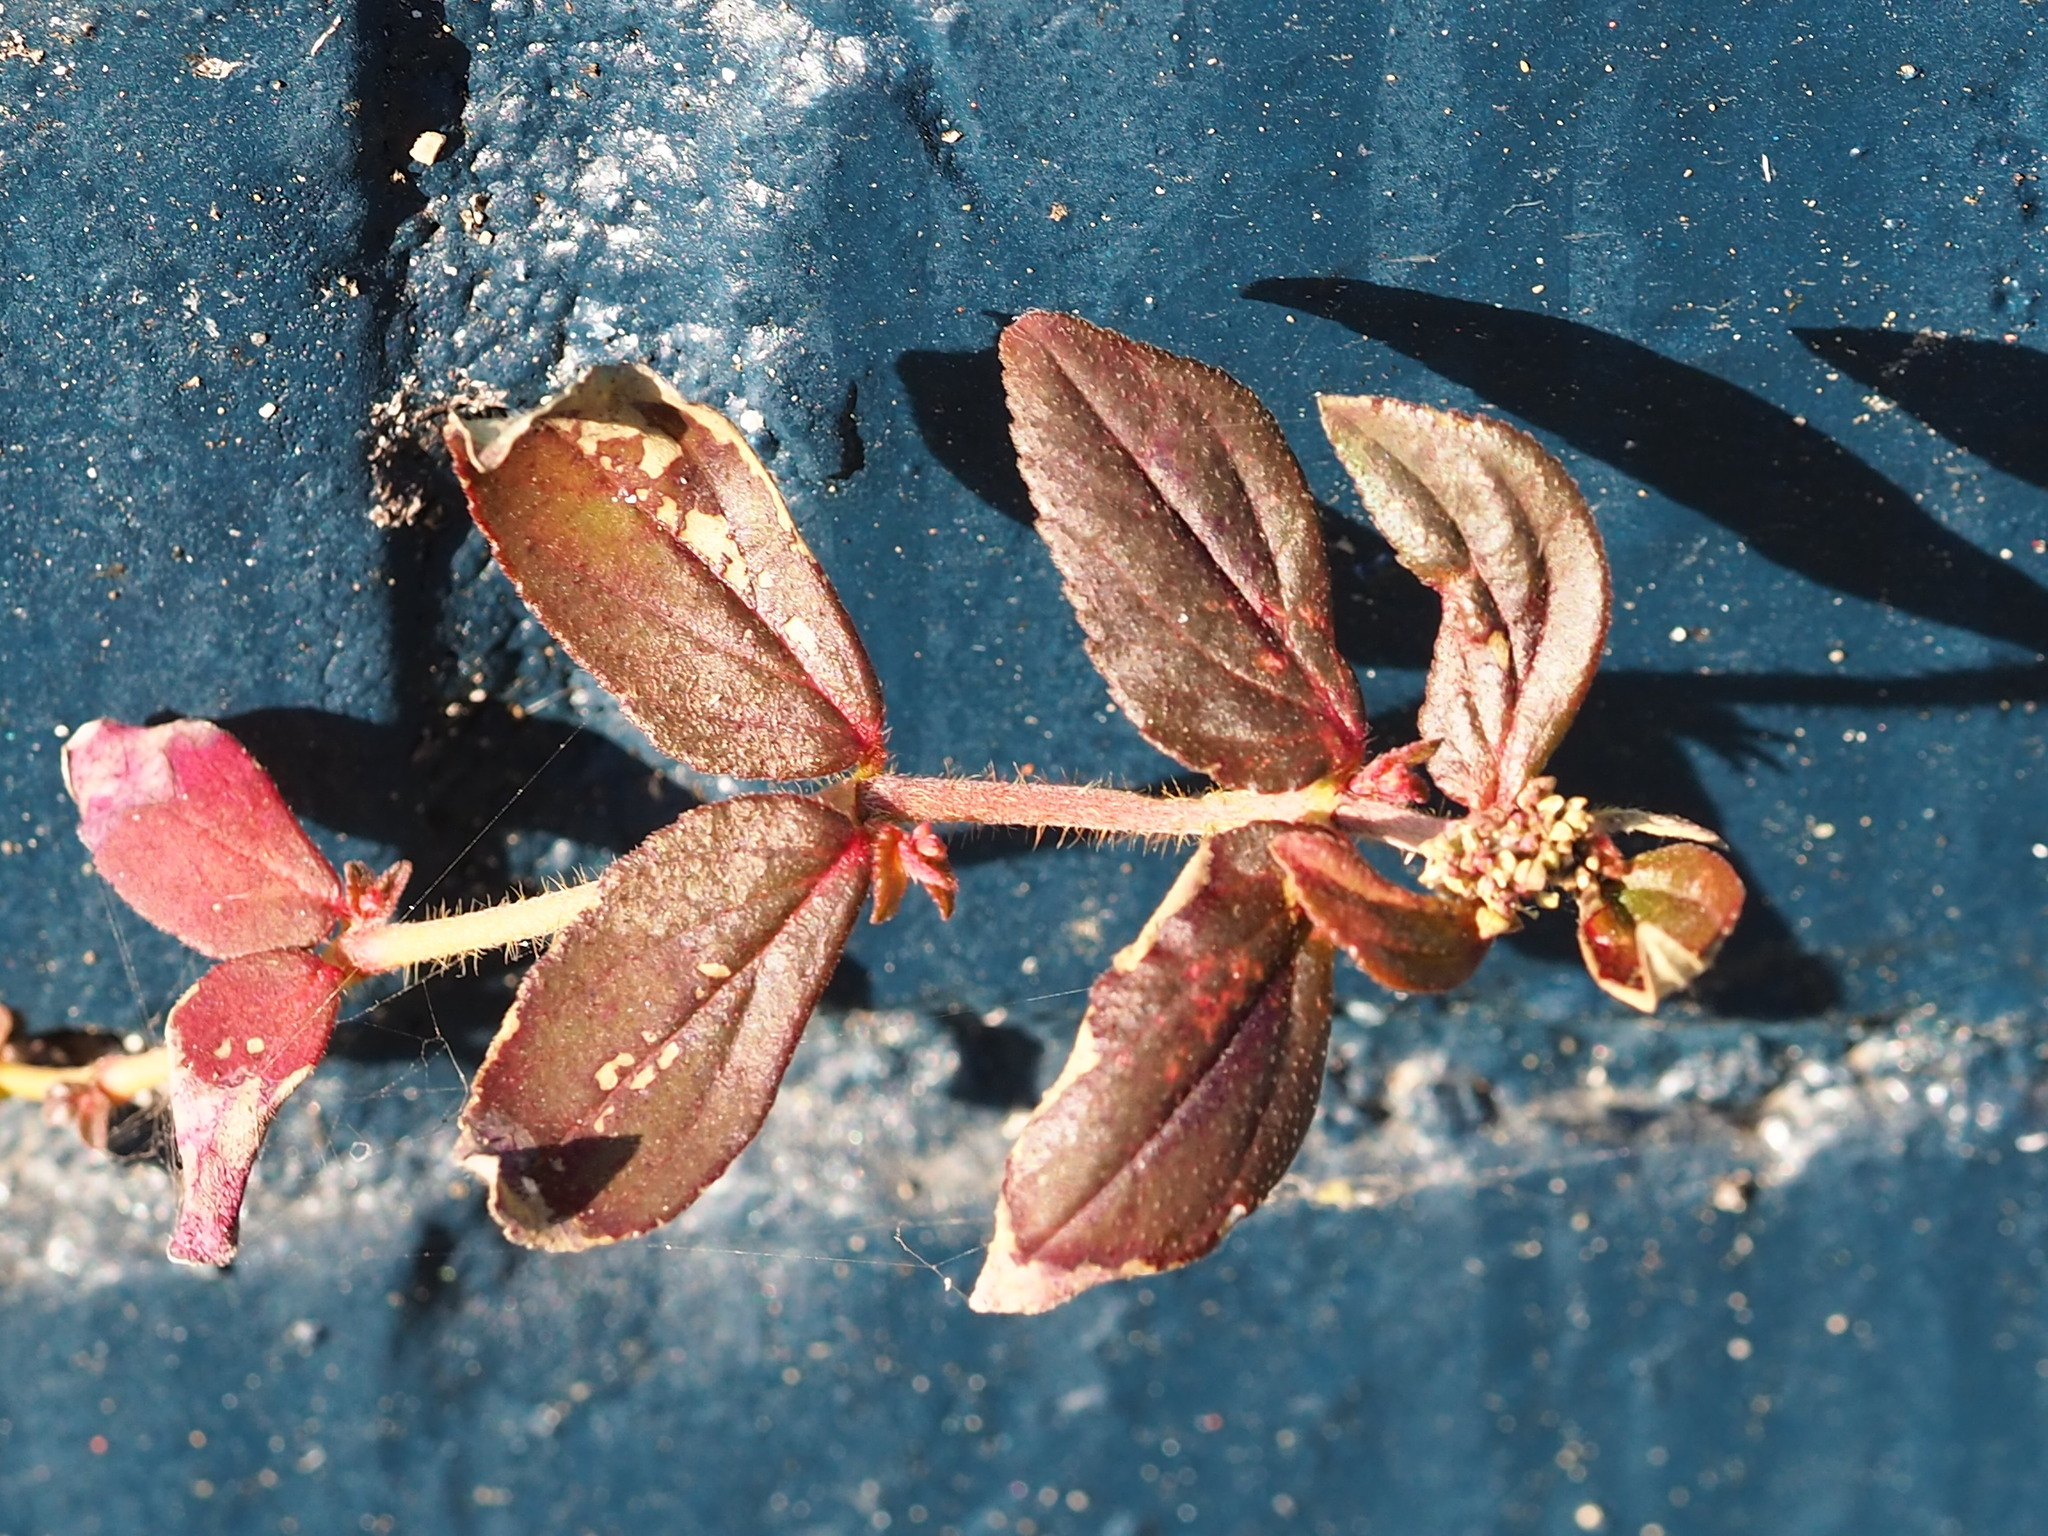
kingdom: Plantae
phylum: Tracheophyta
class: Magnoliopsida
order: Malpighiales
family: Euphorbiaceae
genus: Euphorbia
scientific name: Euphorbia hirta
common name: Pillpod sandmat
